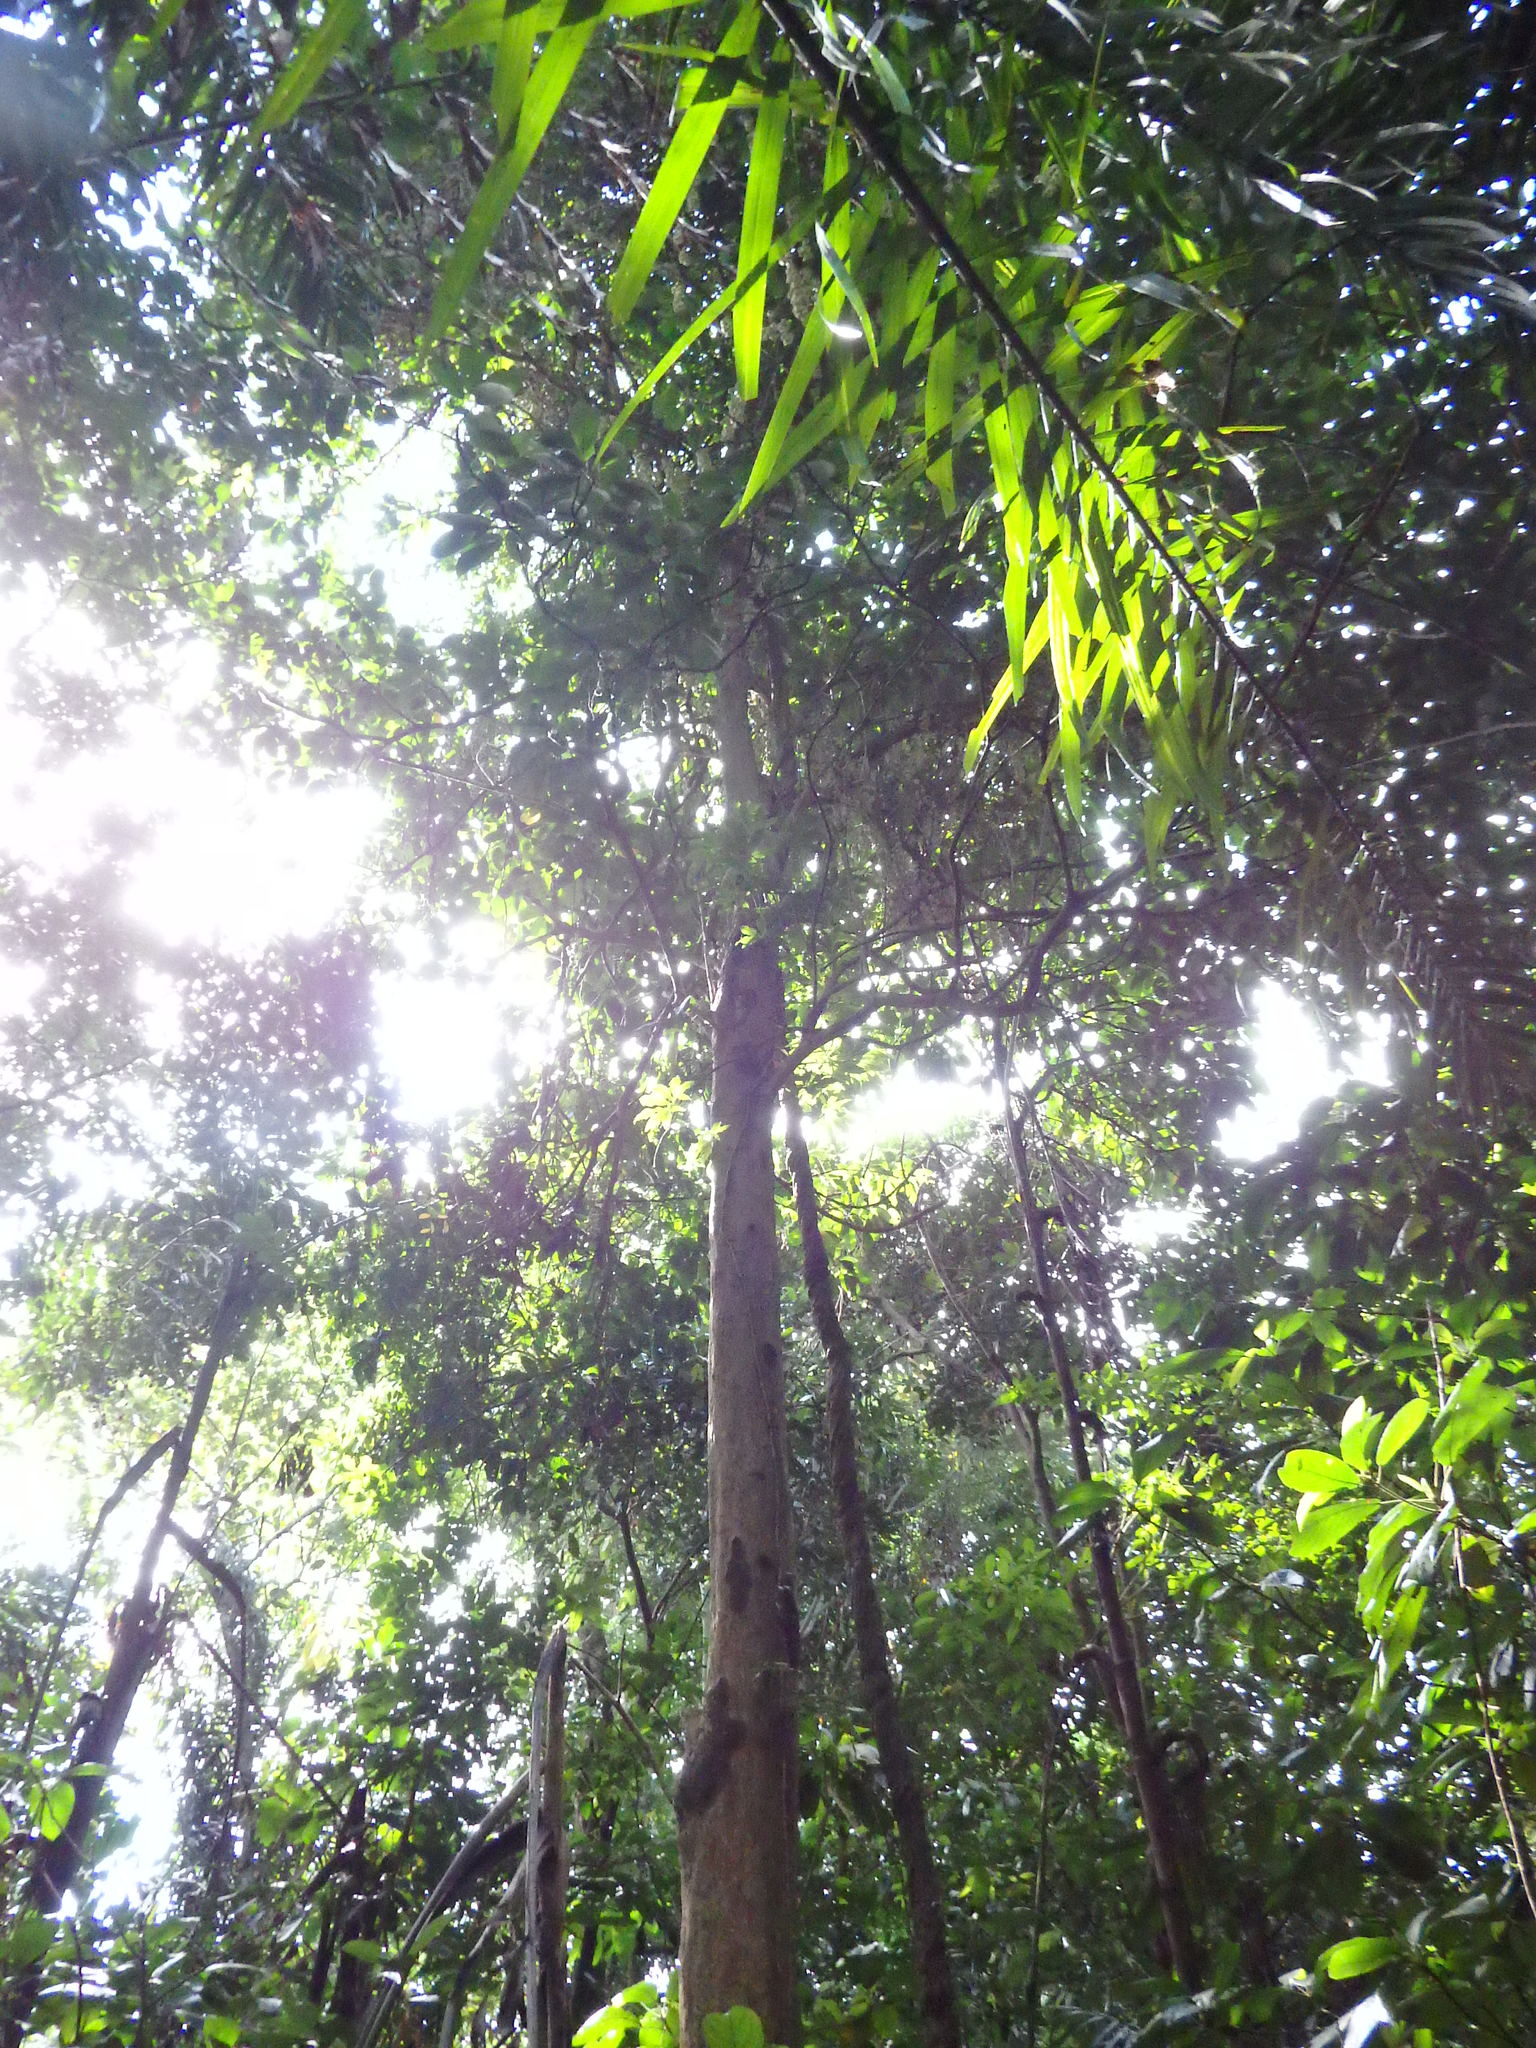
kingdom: Plantae
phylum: Tracheophyta
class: Magnoliopsida
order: Malpighiales
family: Phyllanthaceae
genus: Baccaurea
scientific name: Baccaurea motleyana
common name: Rambai
